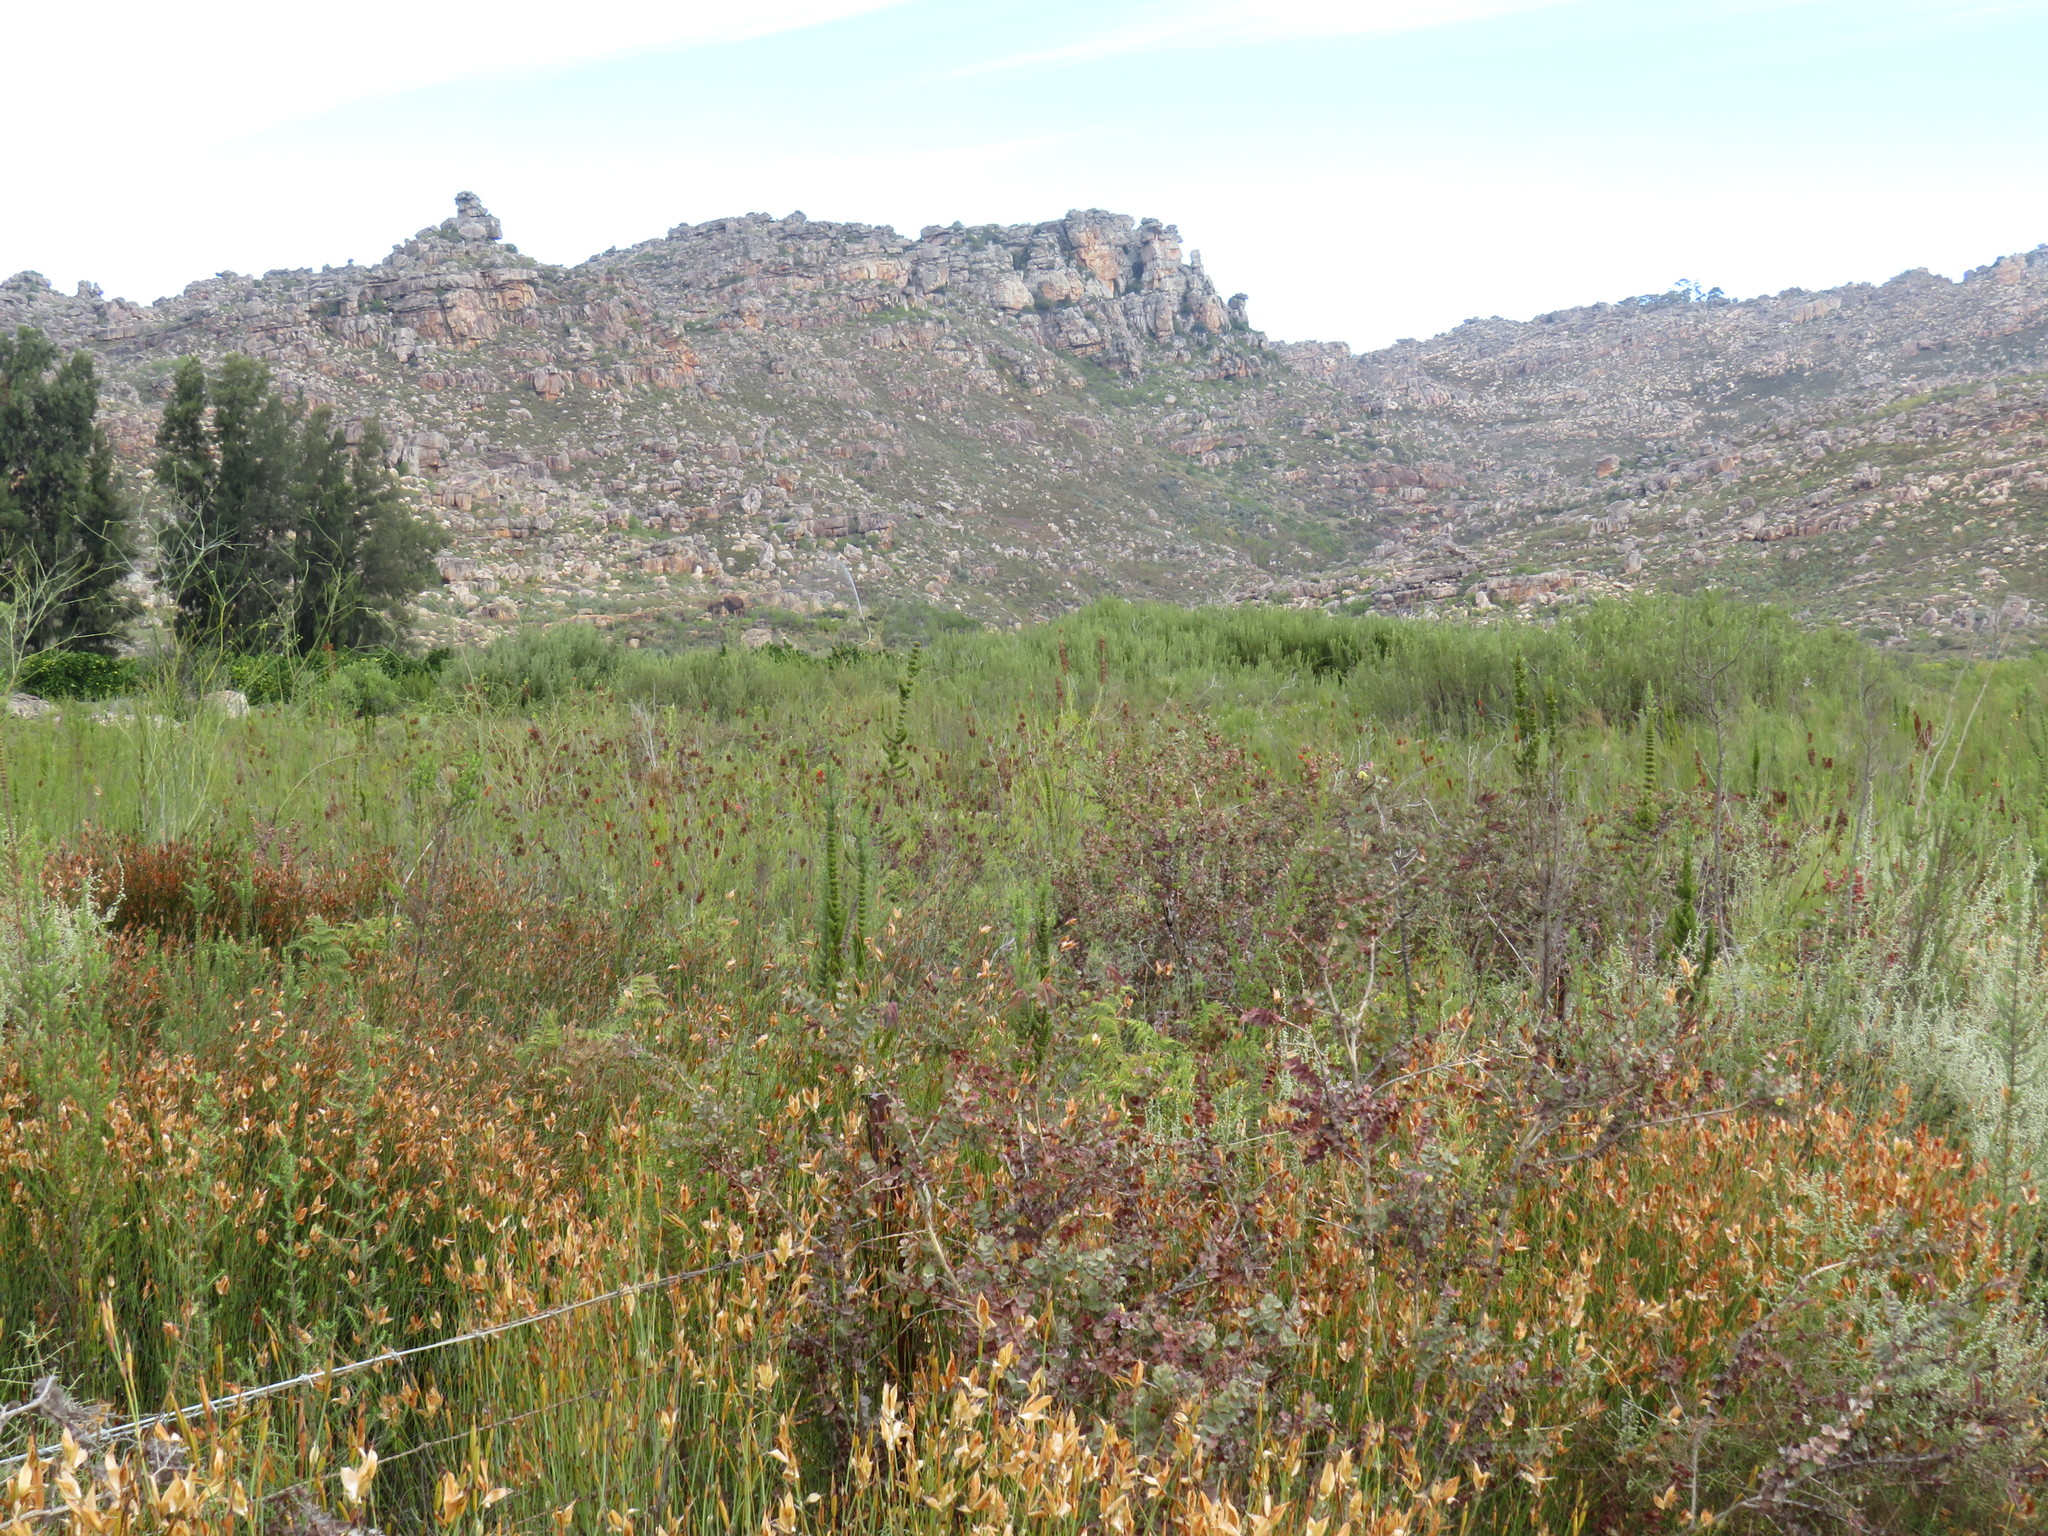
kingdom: Plantae
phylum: Tracheophyta
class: Magnoliopsida
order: Ericales
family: Ericaceae
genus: Erica
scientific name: Erica mammosa
